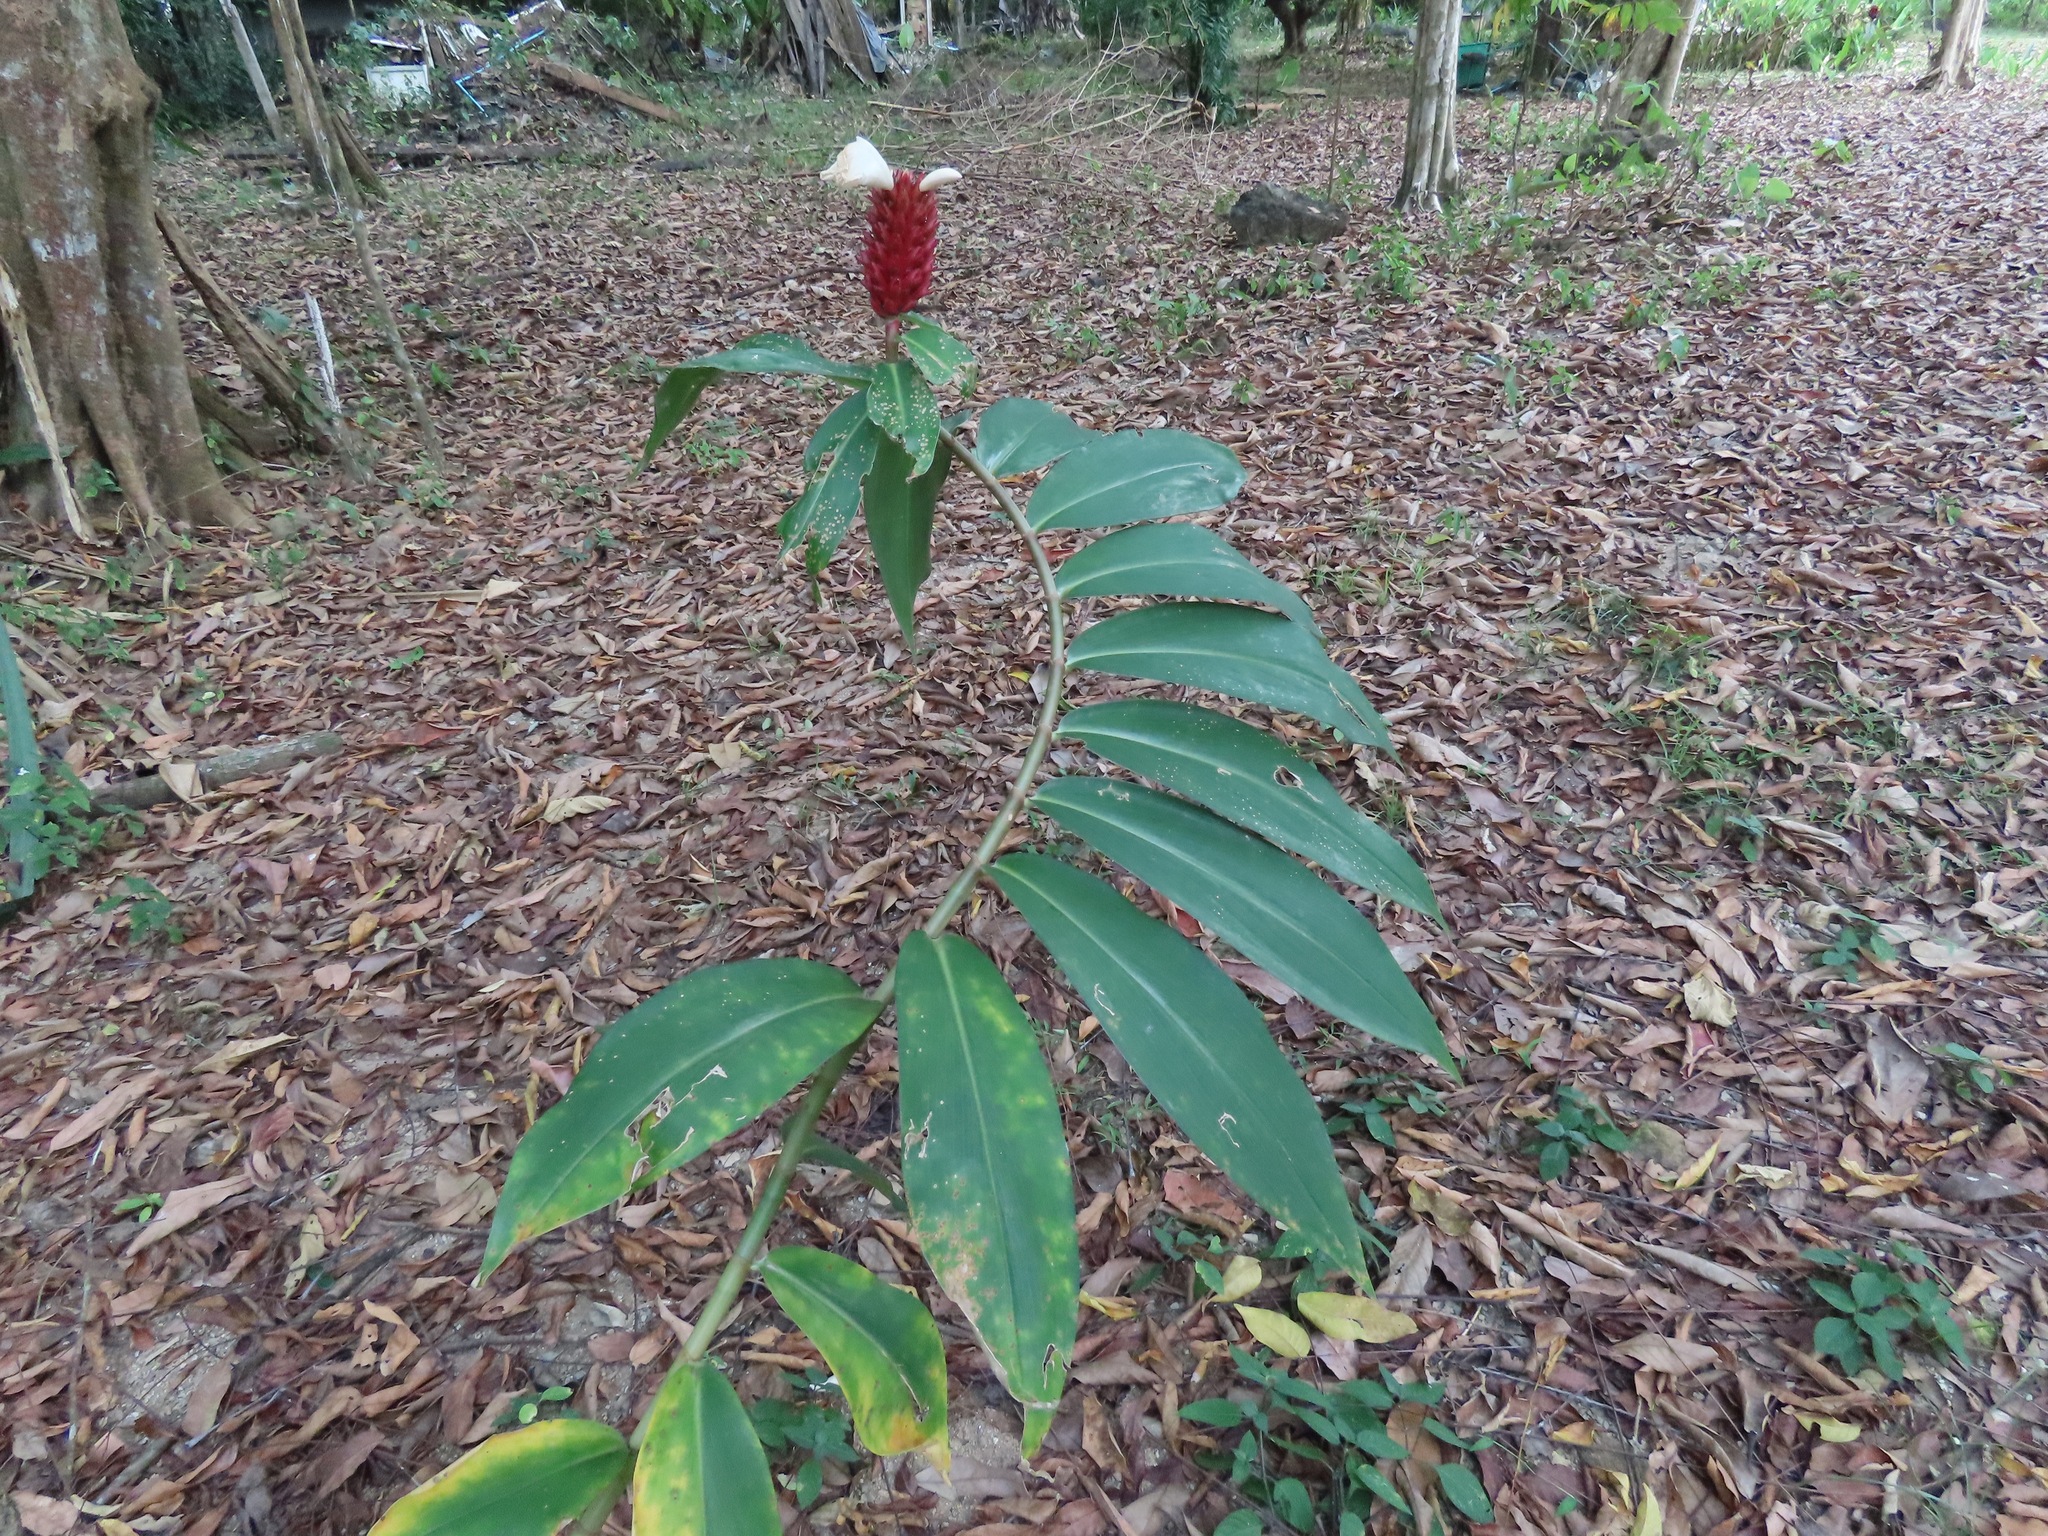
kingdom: Plantae
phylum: Tracheophyta
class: Liliopsida
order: Zingiberales
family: Costaceae
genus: Hellenia
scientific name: Hellenia speciosa
